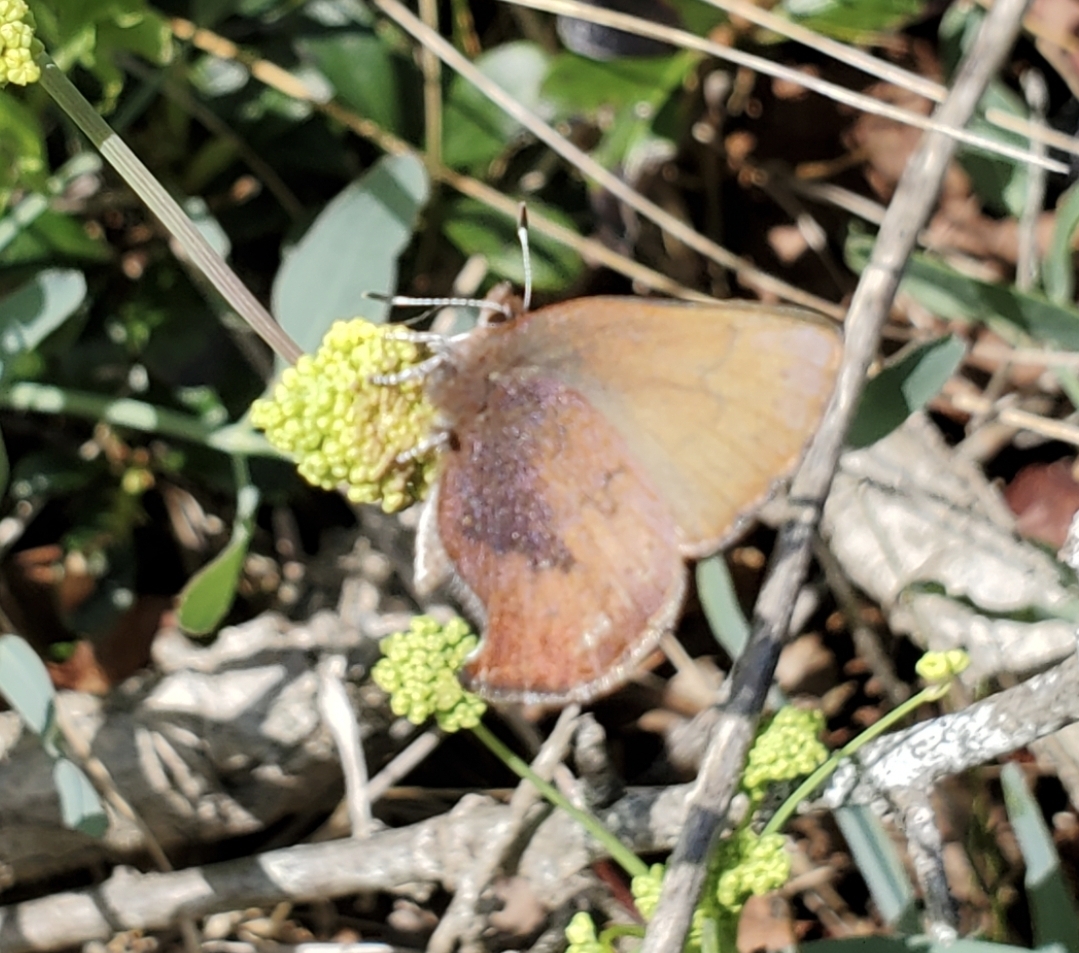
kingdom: Animalia
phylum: Arthropoda
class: Insecta
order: Lepidoptera
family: Lycaenidae
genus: Incisalia
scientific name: Incisalia irioides
